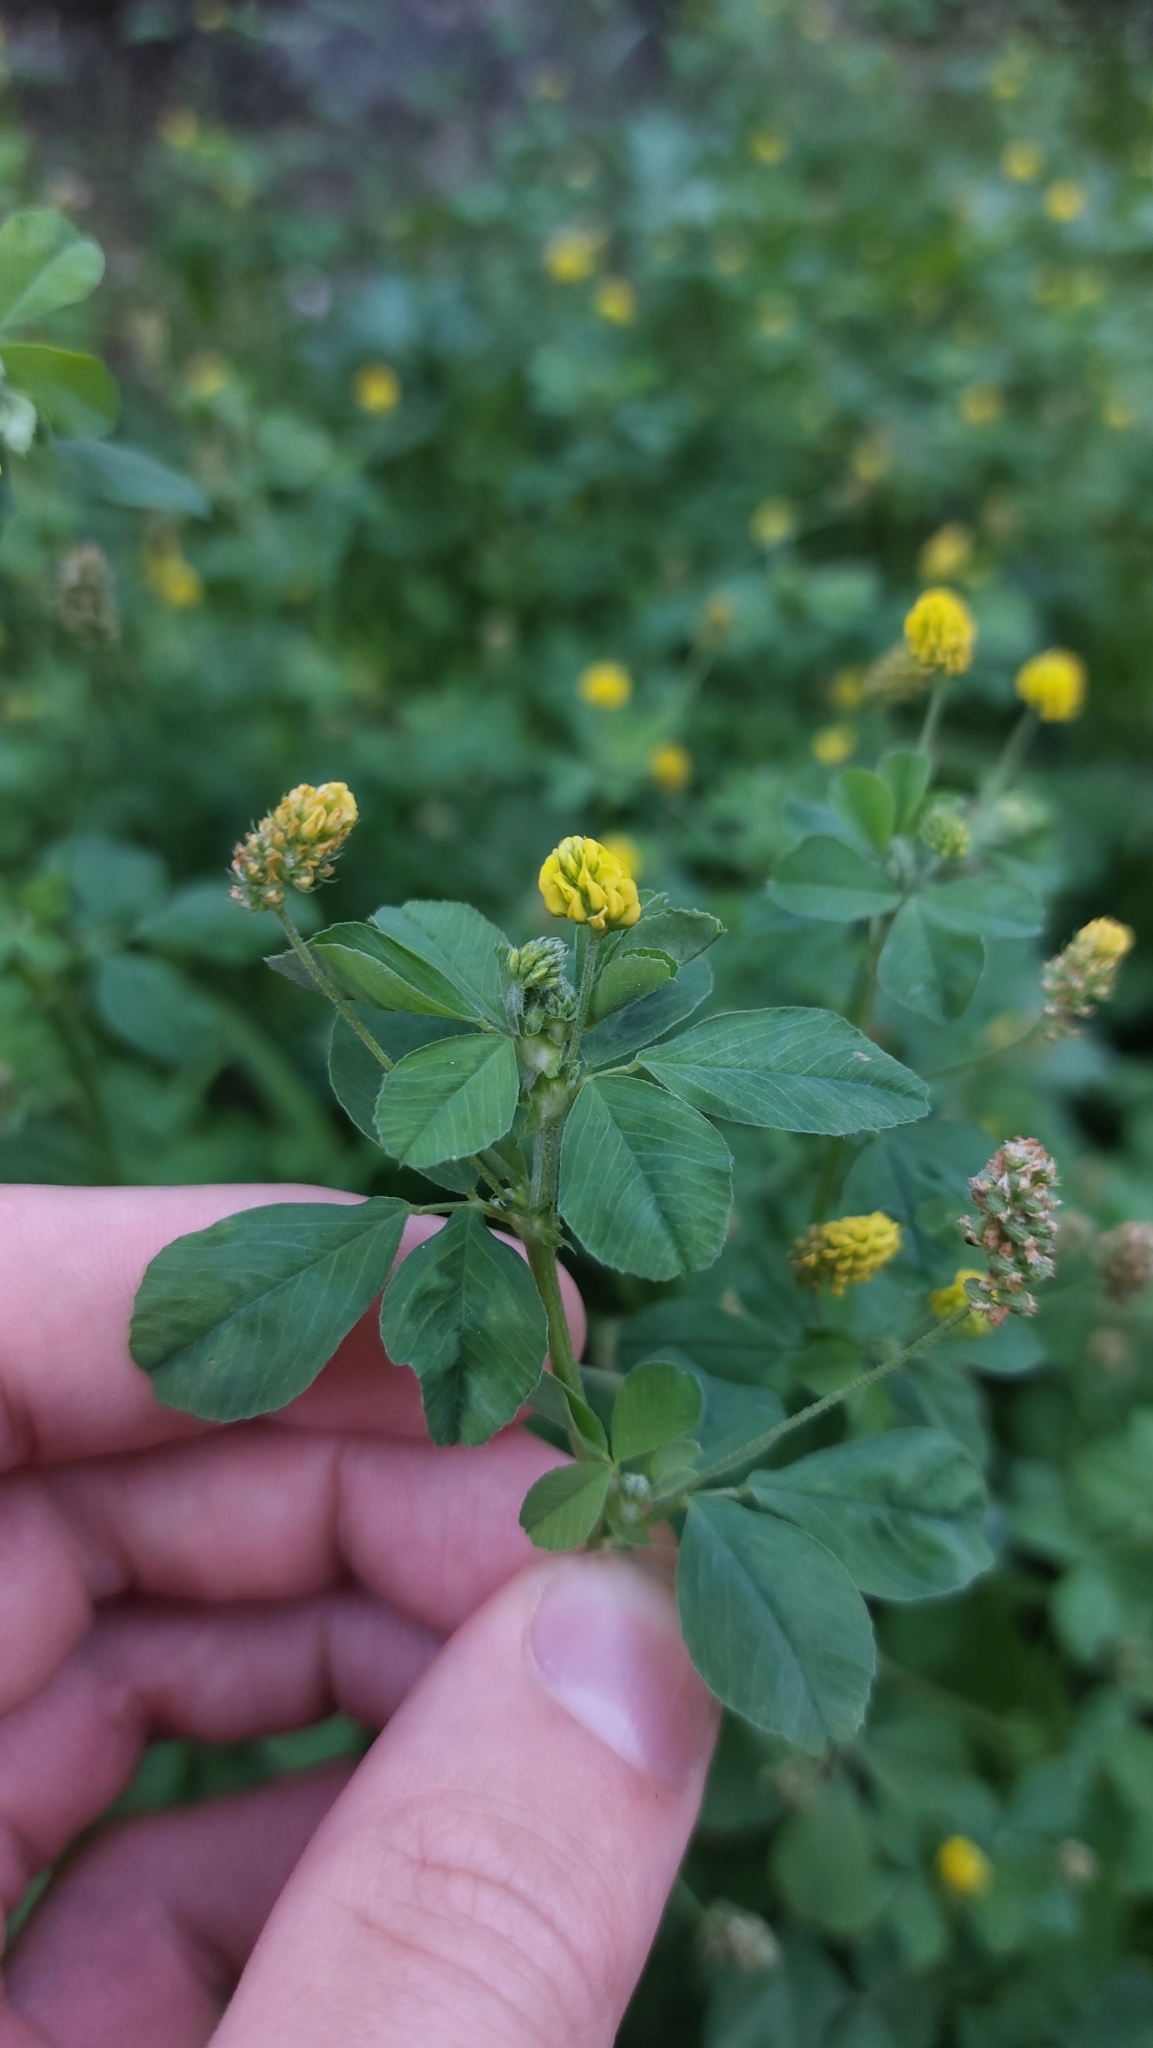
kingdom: Plantae
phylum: Tracheophyta
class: Magnoliopsida
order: Fabales
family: Fabaceae
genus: Medicago
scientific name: Medicago lupulina
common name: Black medick
